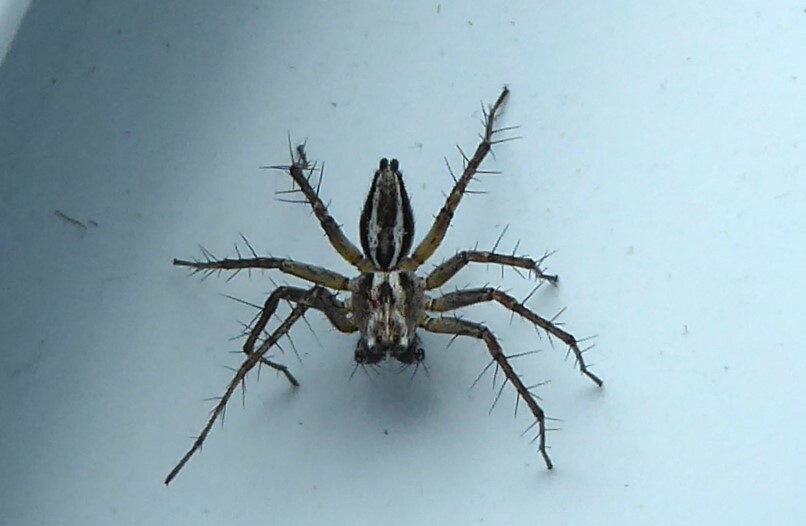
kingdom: Animalia
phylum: Arthropoda
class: Arachnida
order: Araneae
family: Oxyopidae
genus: Oxyopes
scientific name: Oxyopes gracilipes
